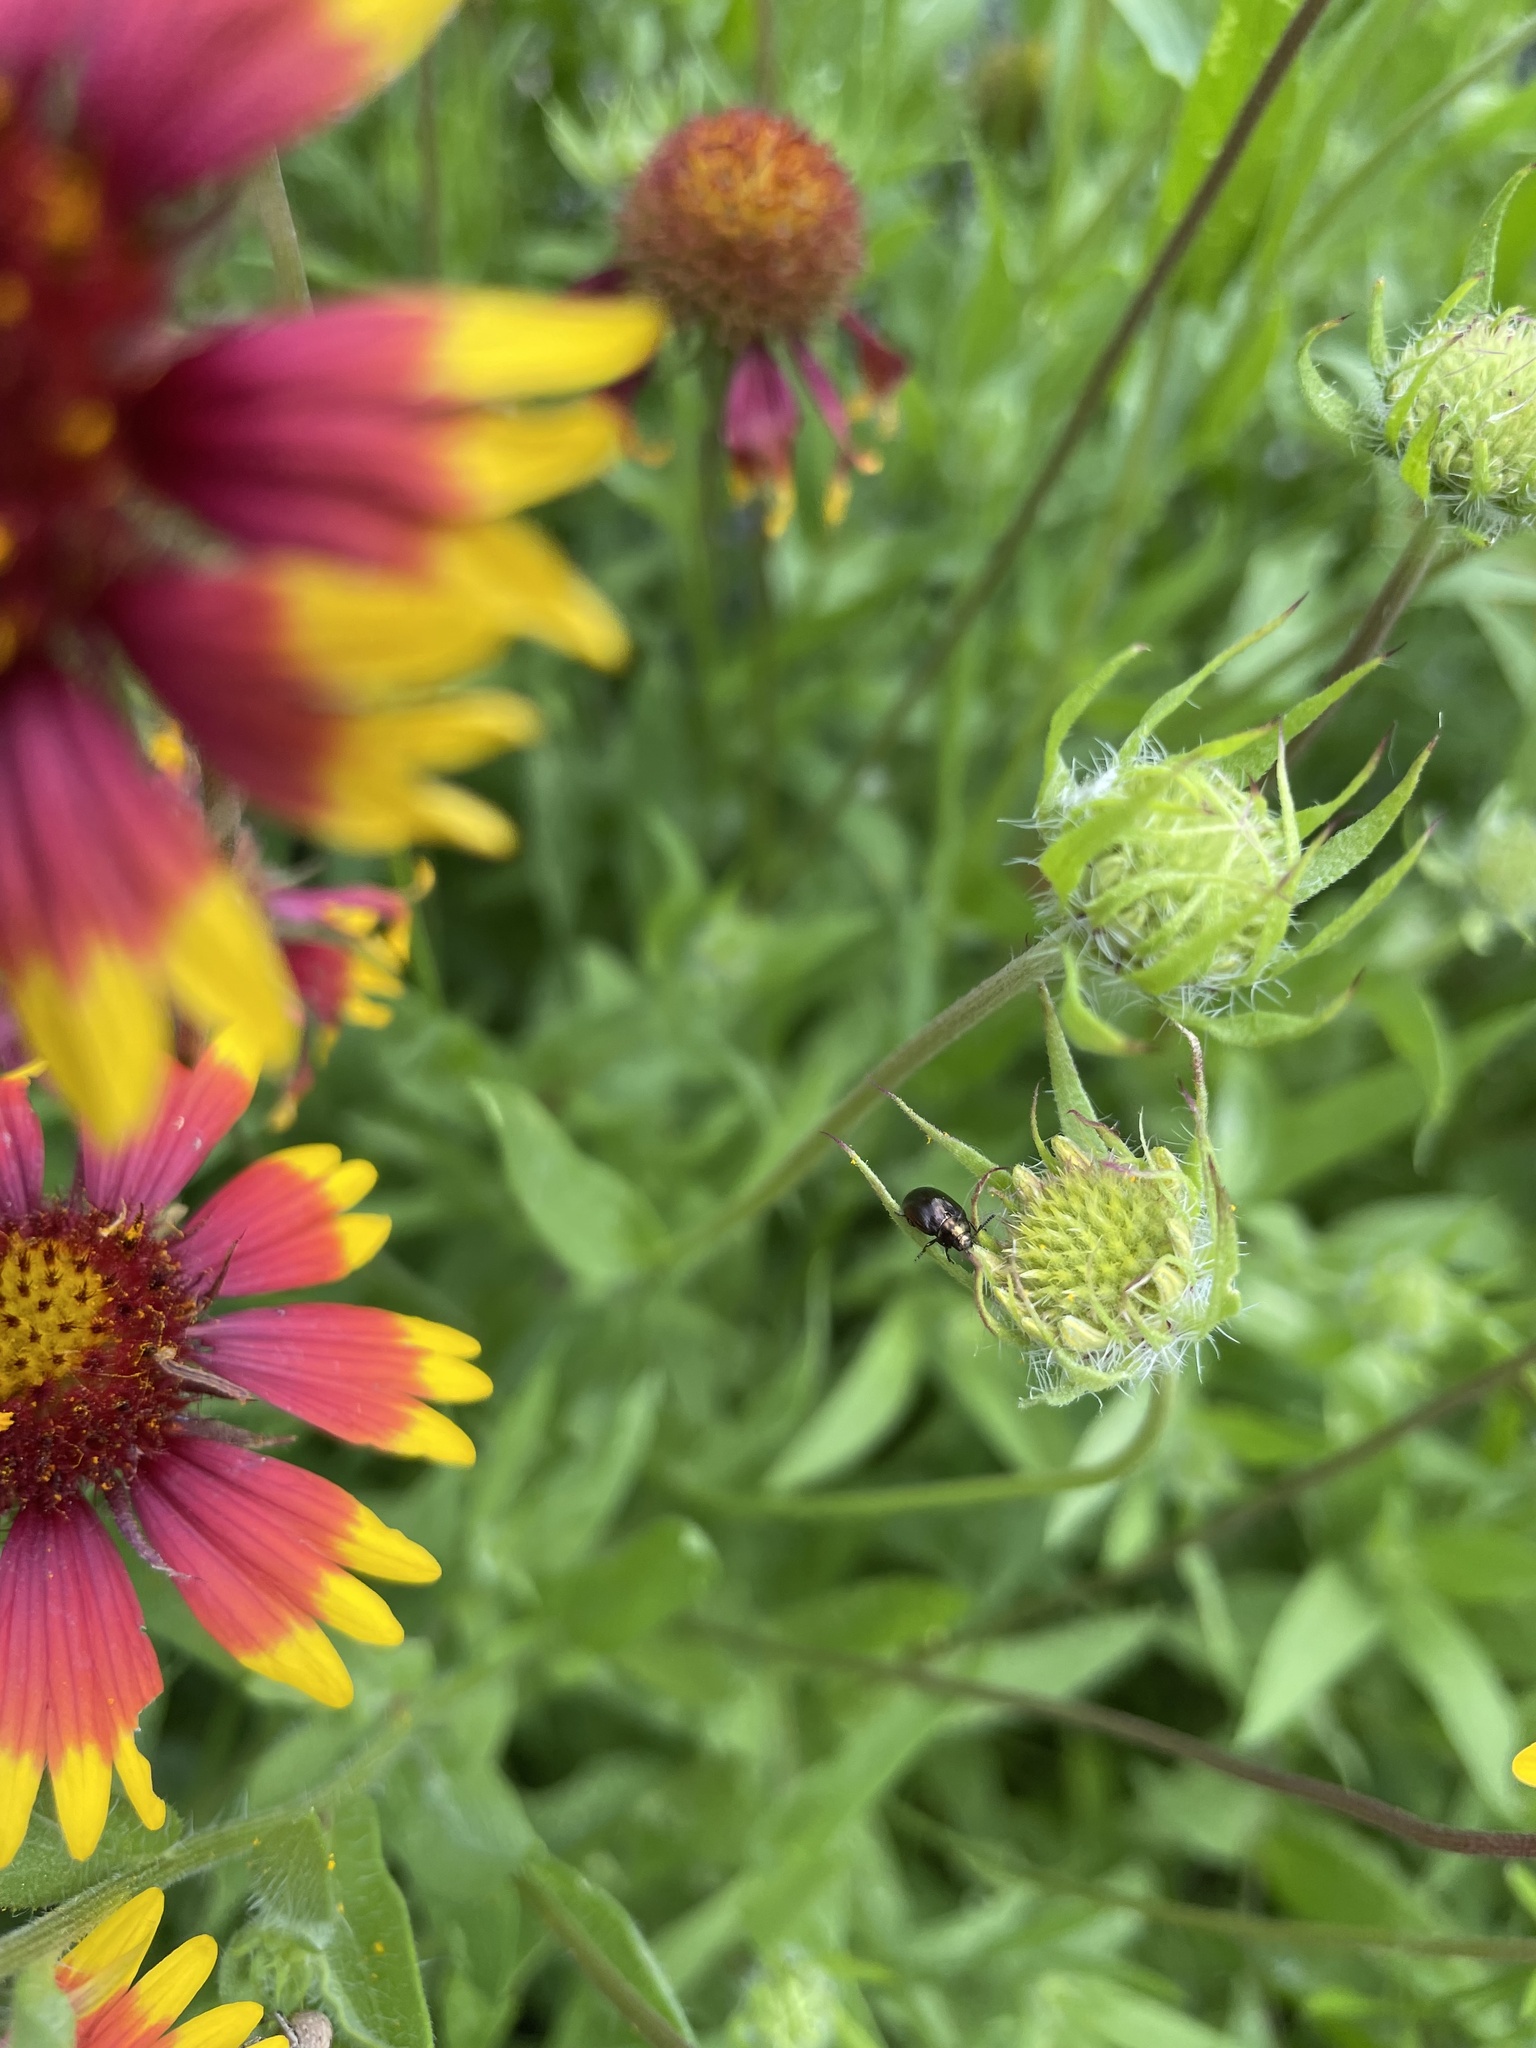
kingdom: Animalia
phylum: Arthropoda
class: Insecta
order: Coleoptera
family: Chrysomelidae
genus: Phaedon
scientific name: Phaedon desotonis
